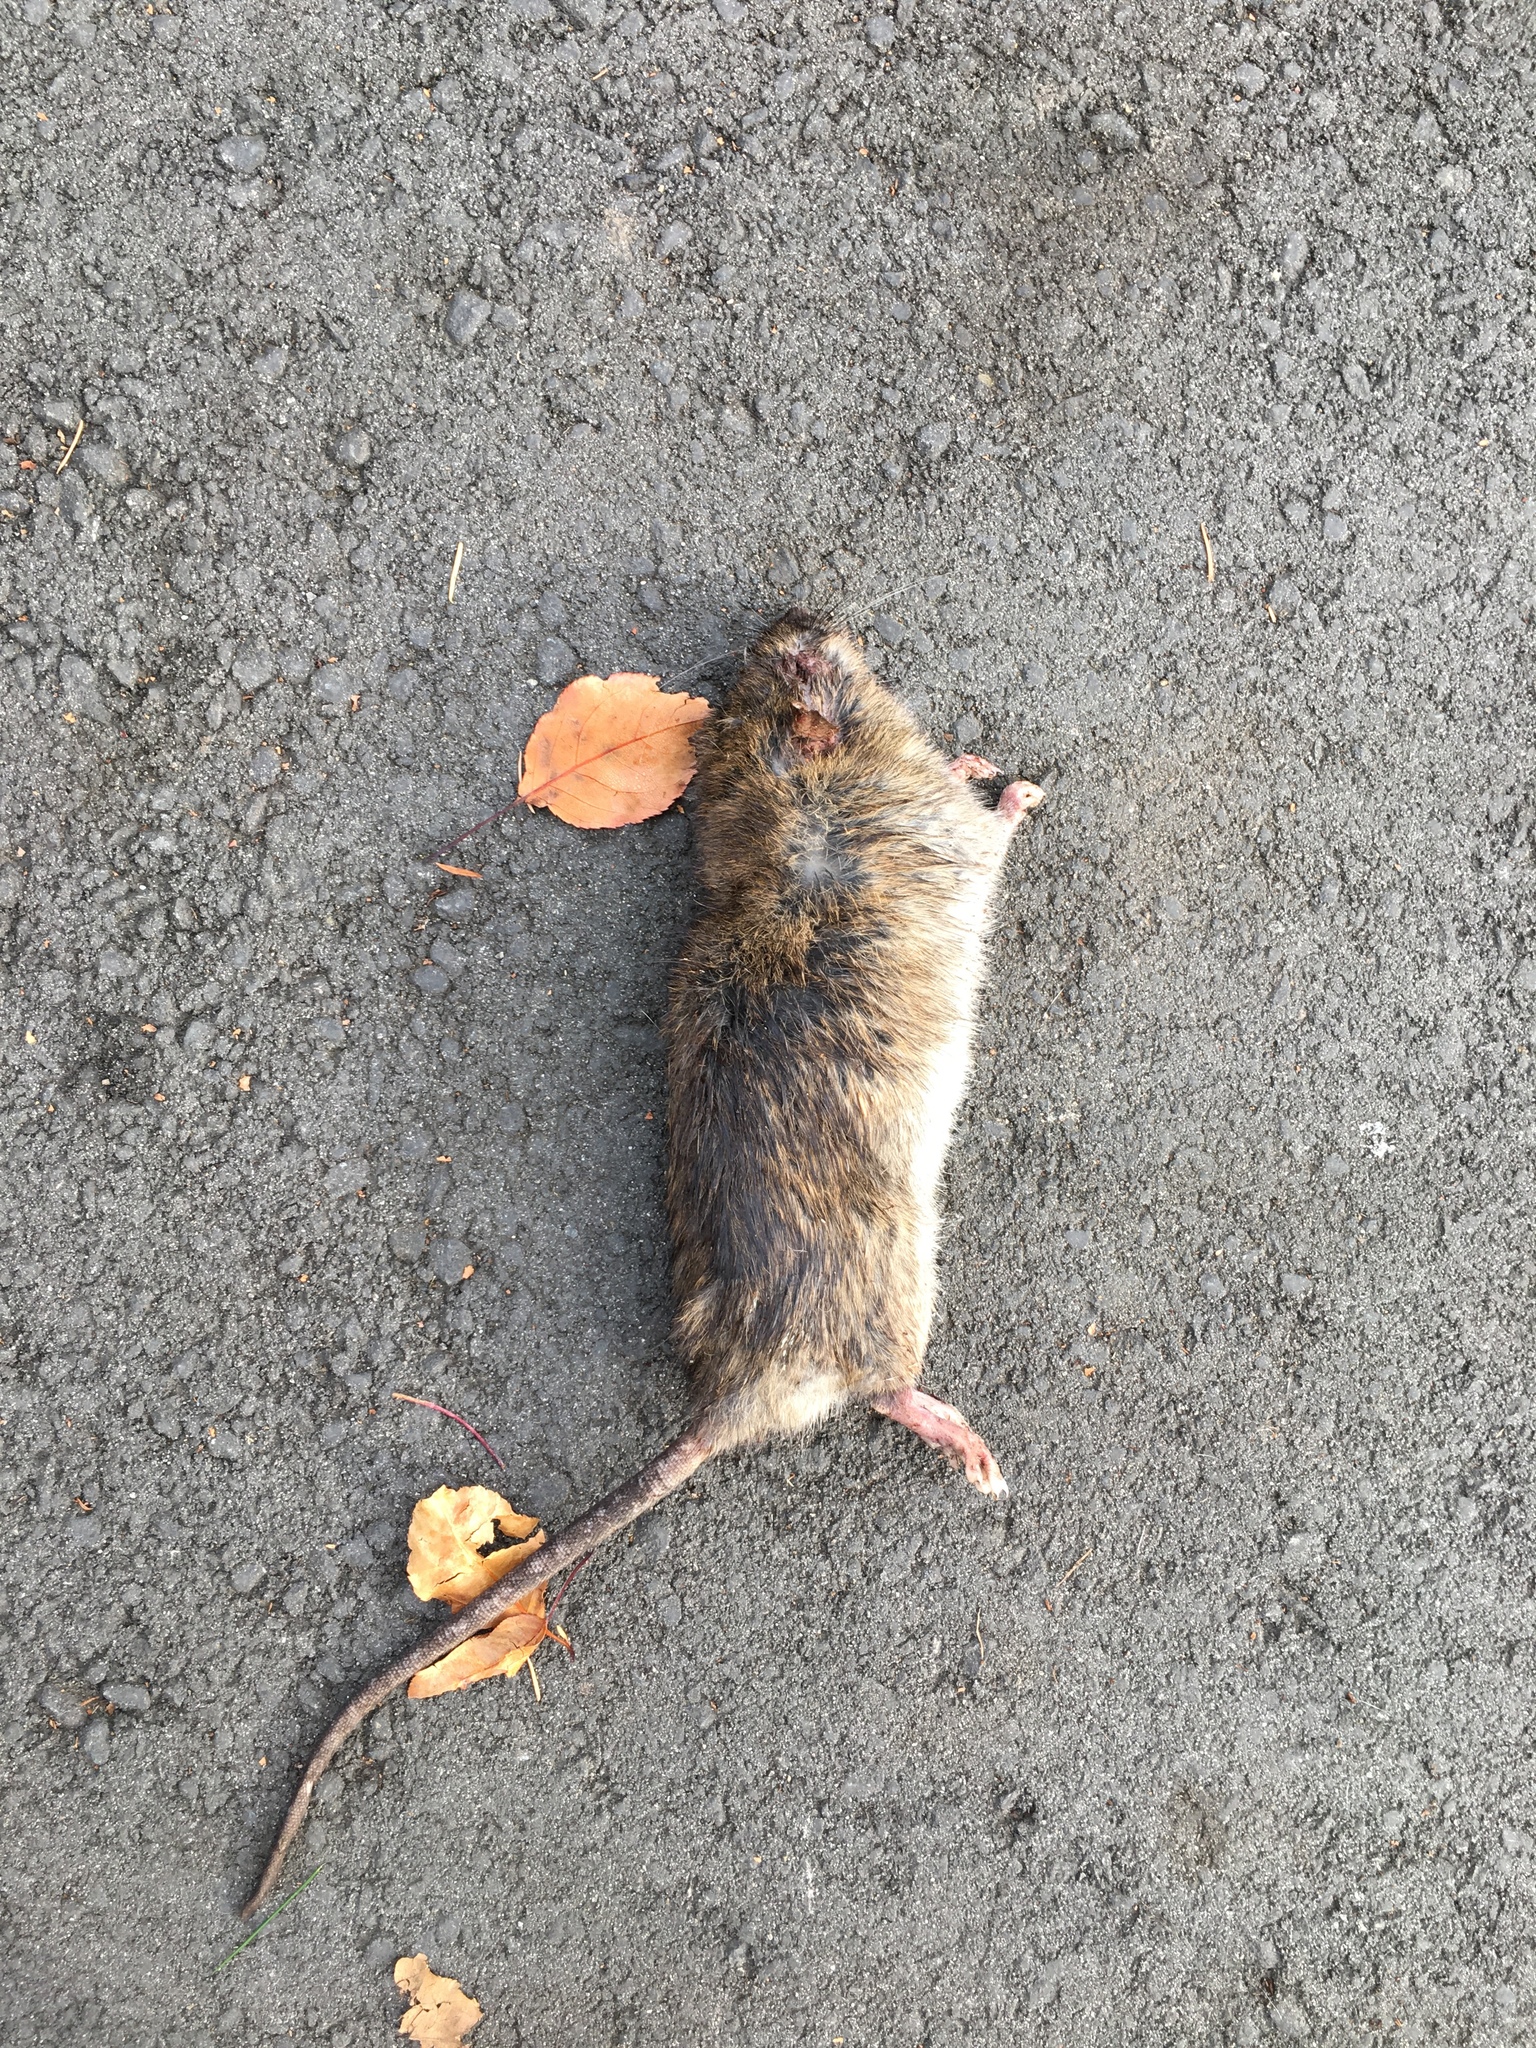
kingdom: Animalia
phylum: Chordata
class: Mammalia
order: Rodentia
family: Muridae
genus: Rattus
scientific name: Rattus norvegicus
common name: Brown rat
